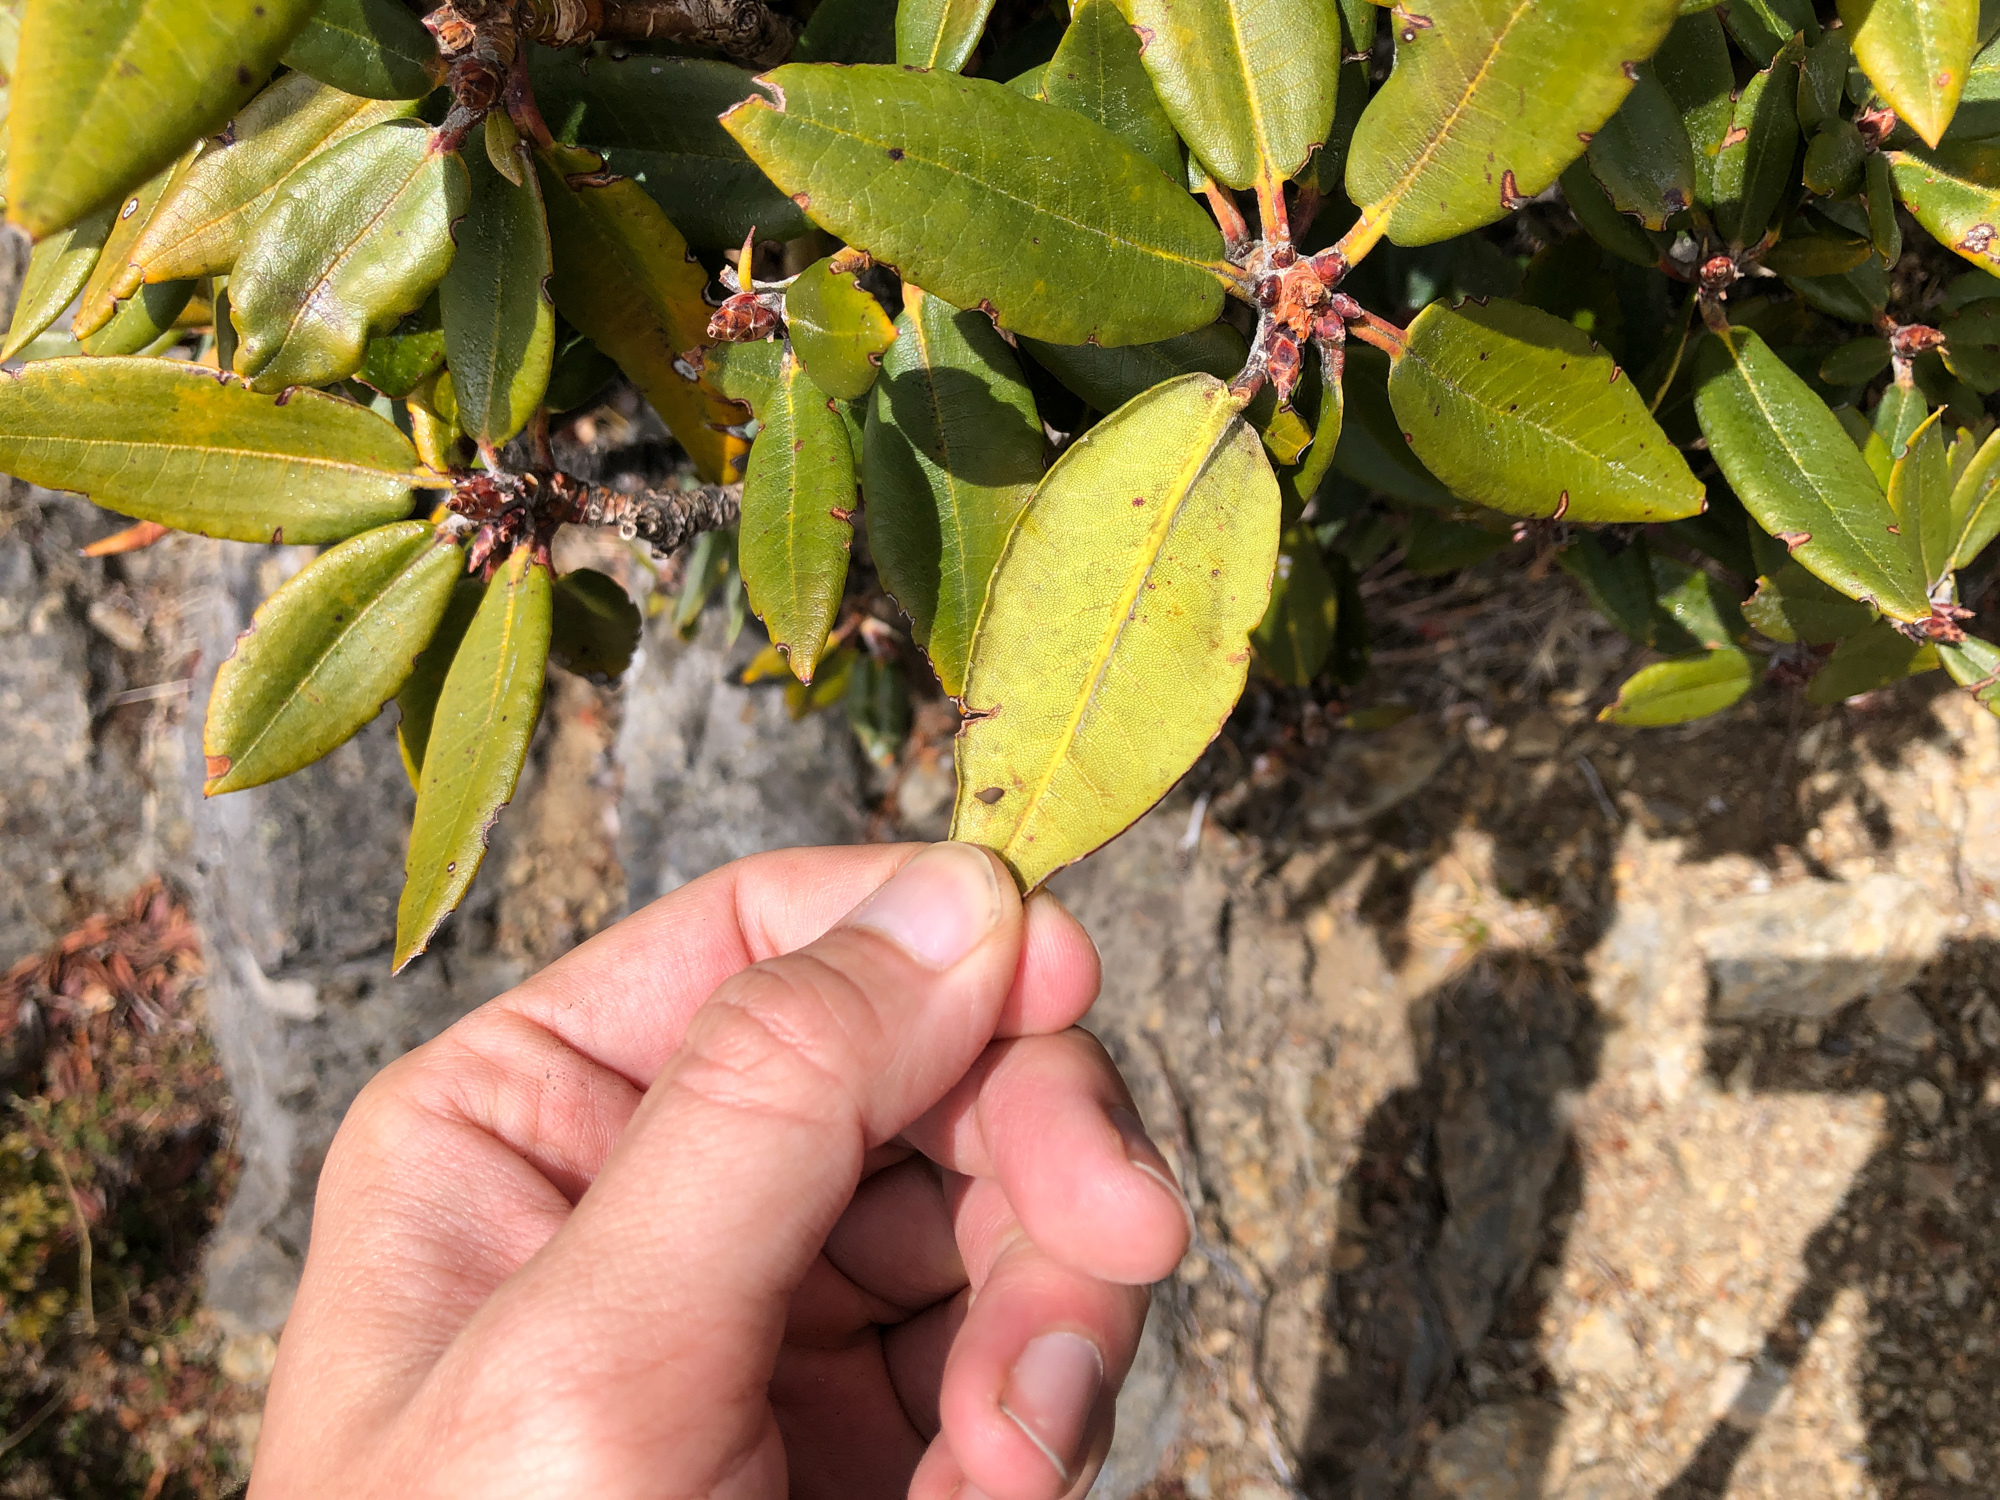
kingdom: Plantae
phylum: Tracheophyta
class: Magnoliopsida
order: Ericales
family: Ericaceae
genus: Rhododendron
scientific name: Rhododendron pseudochrysanthum
